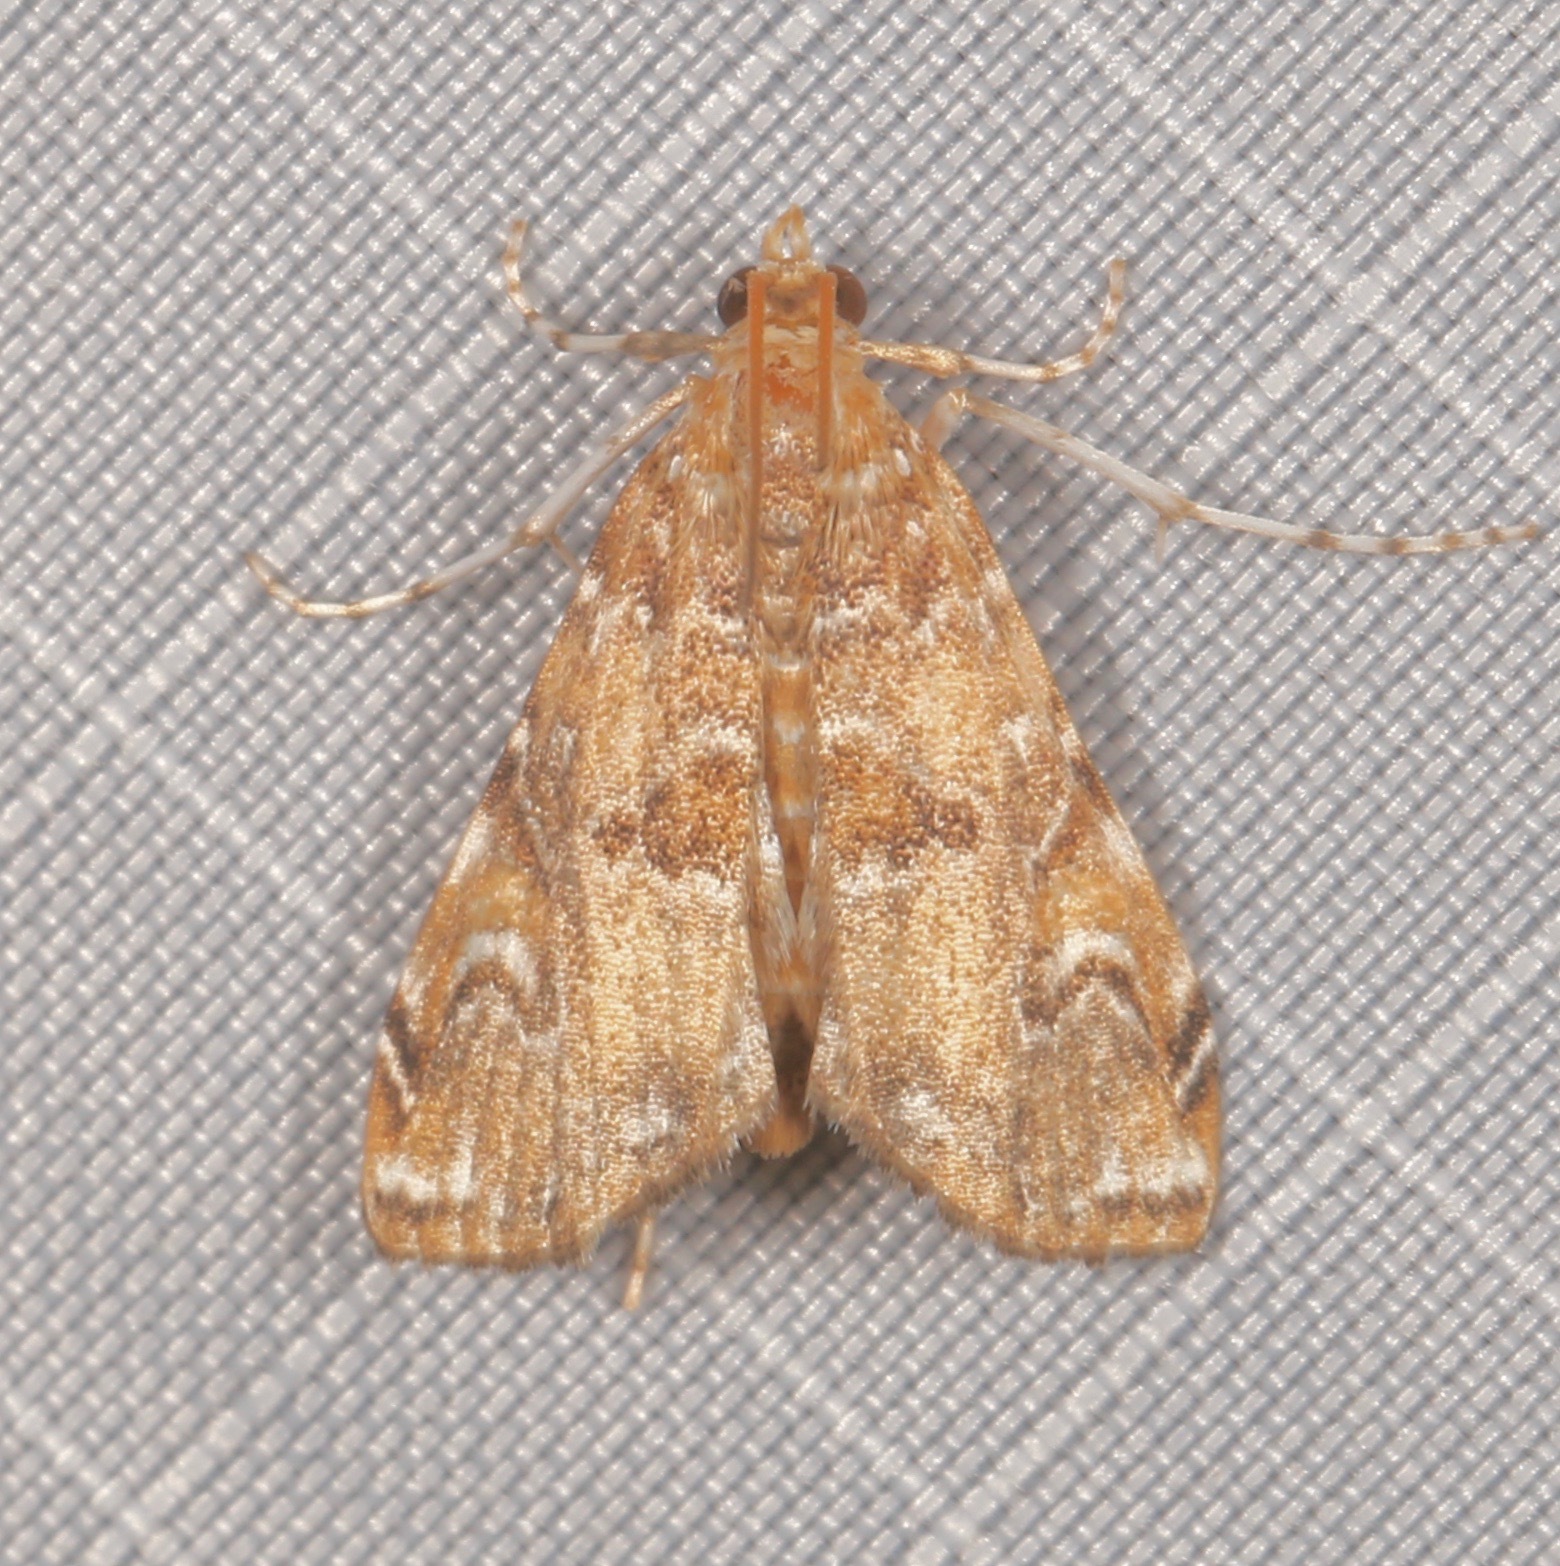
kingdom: Animalia
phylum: Arthropoda
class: Insecta
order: Lepidoptera
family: Crambidae
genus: Elophila
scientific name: Elophila gyralis
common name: Waterlily borer moth
